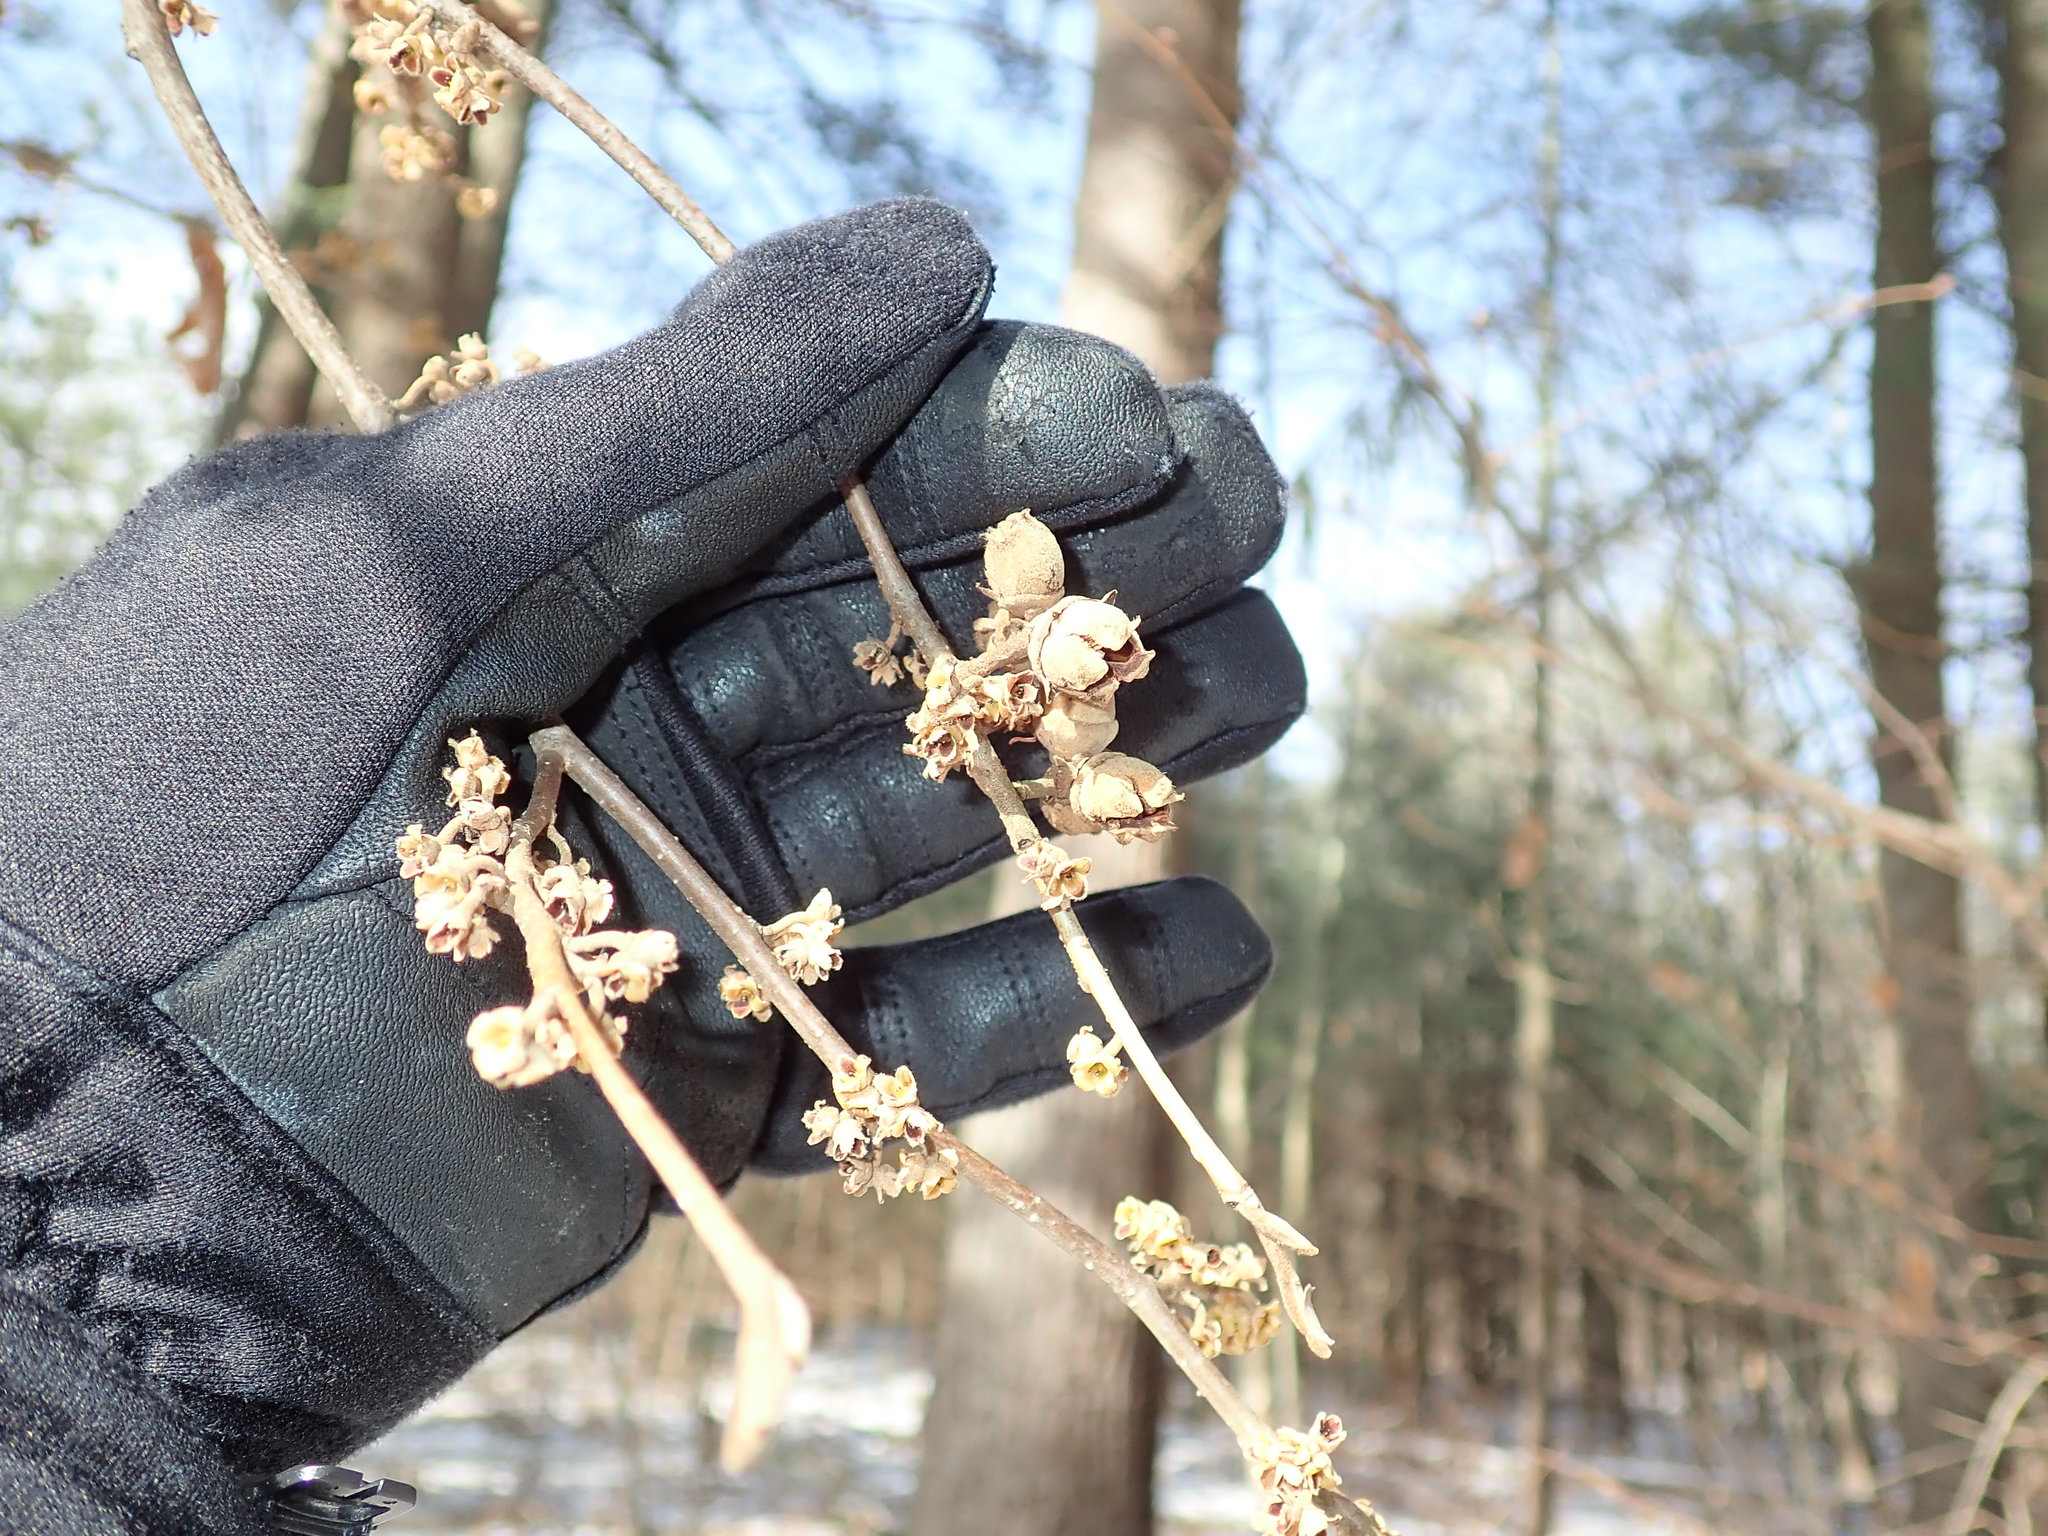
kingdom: Plantae
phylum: Tracheophyta
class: Magnoliopsida
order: Saxifragales
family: Hamamelidaceae
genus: Hamamelis
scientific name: Hamamelis virginiana
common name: Witch-hazel
